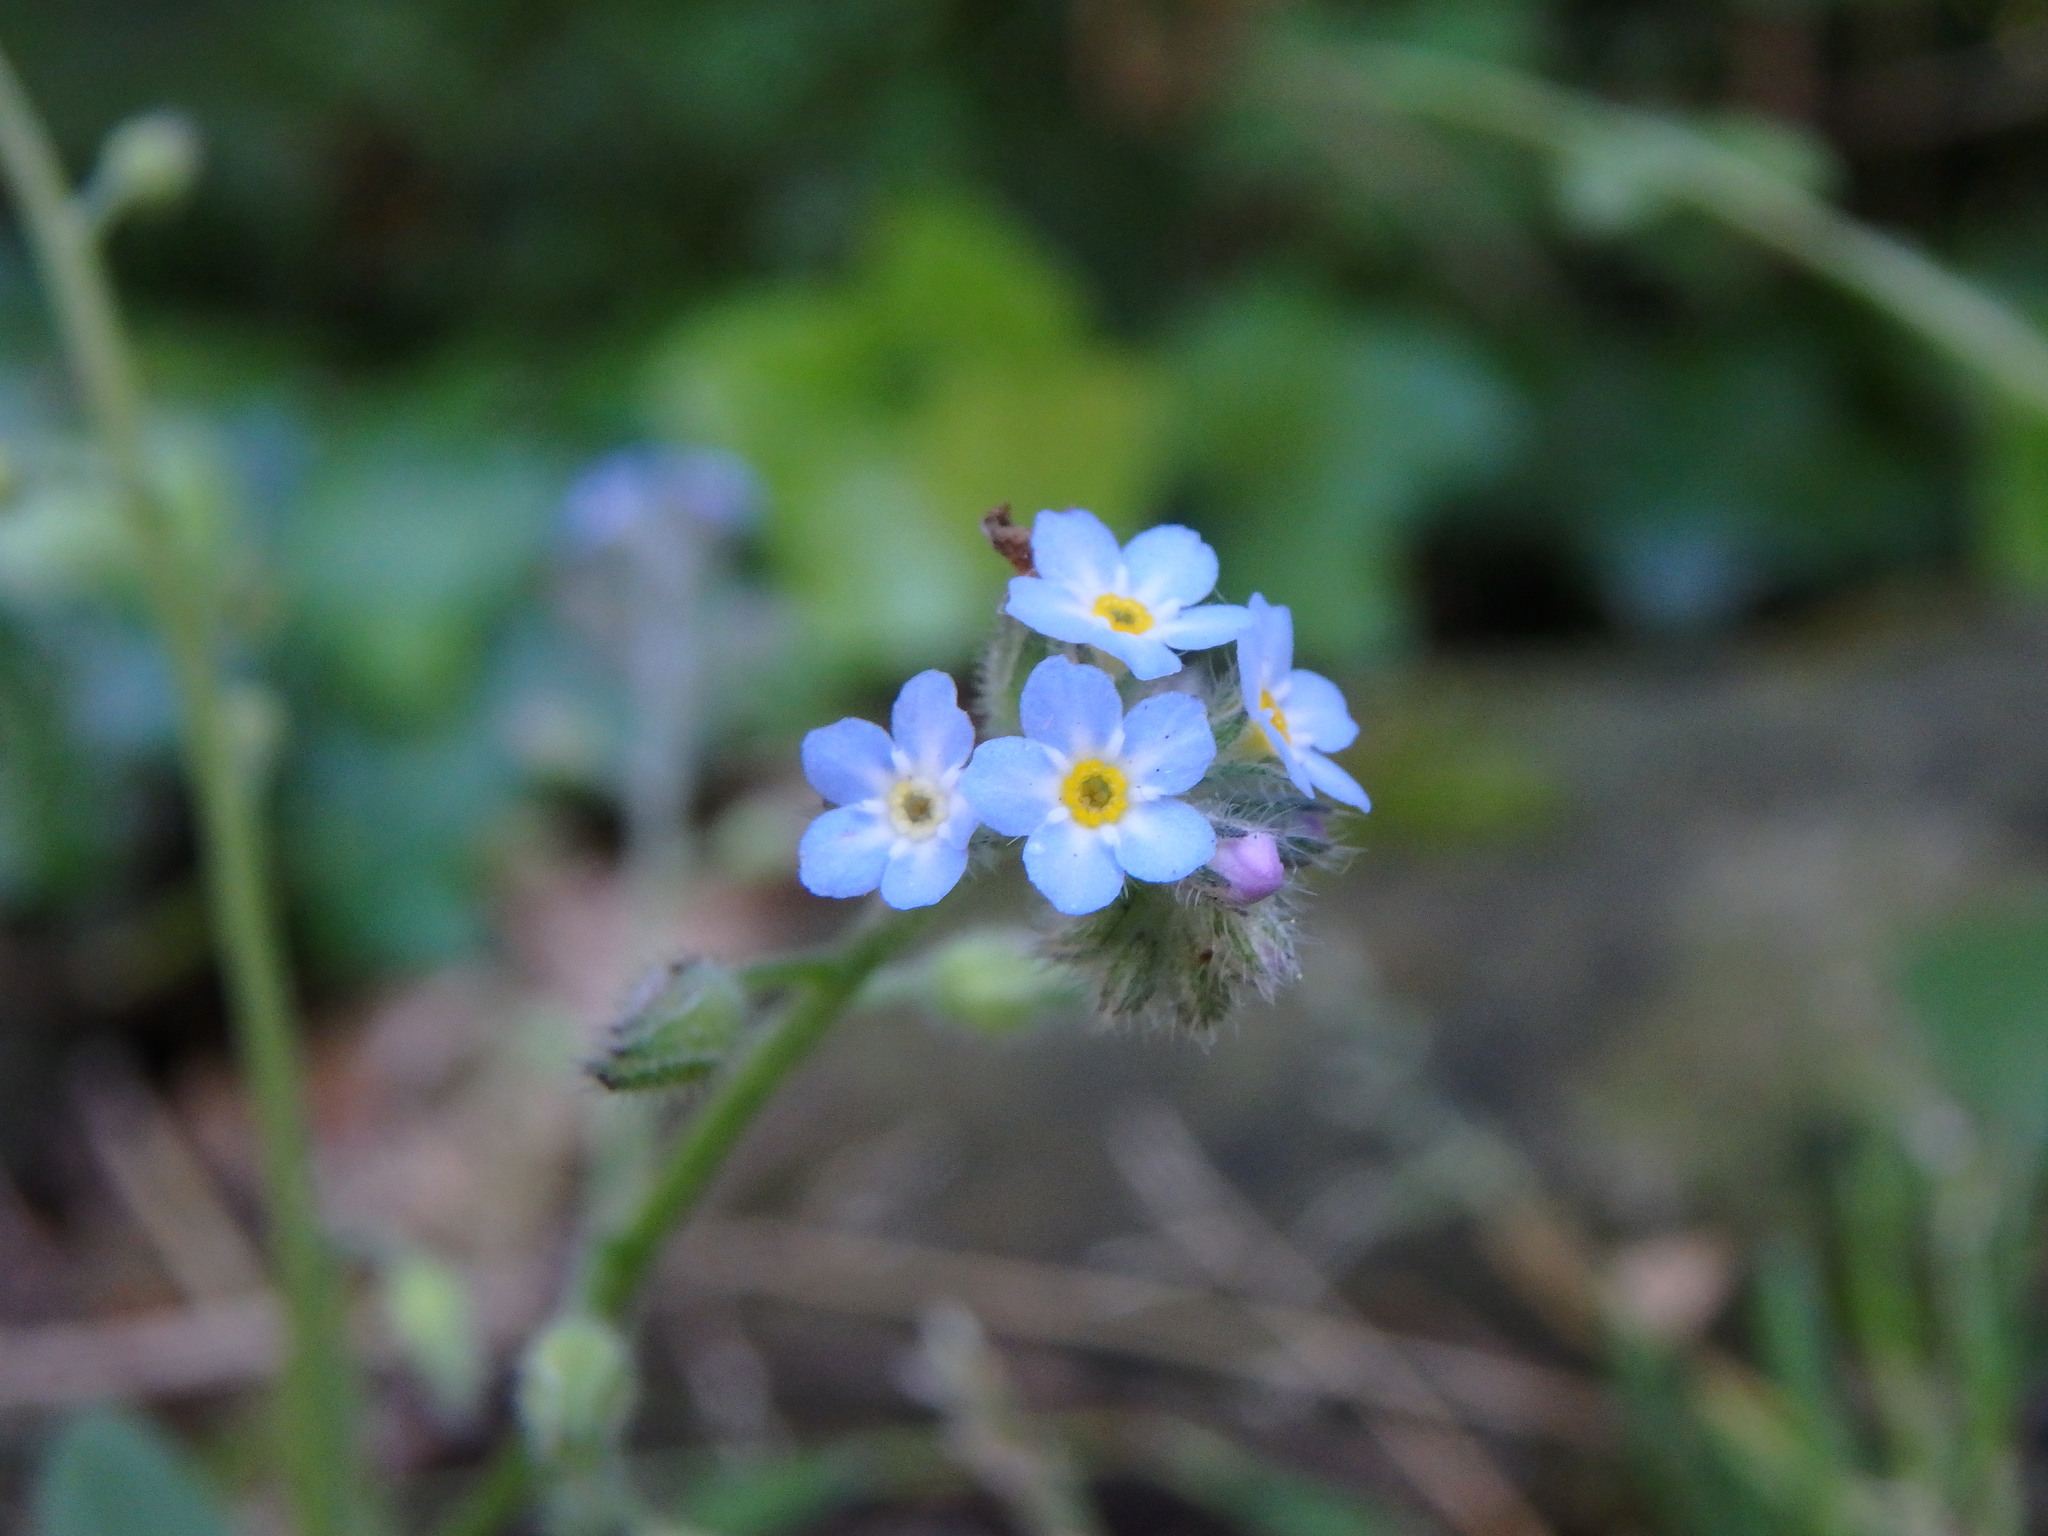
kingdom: Plantae
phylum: Tracheophyta
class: Magnoliopsida
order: Boraginales
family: Boraginaceae
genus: Myosotis
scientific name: Myosotis arvensis
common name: Field forget-me-not
